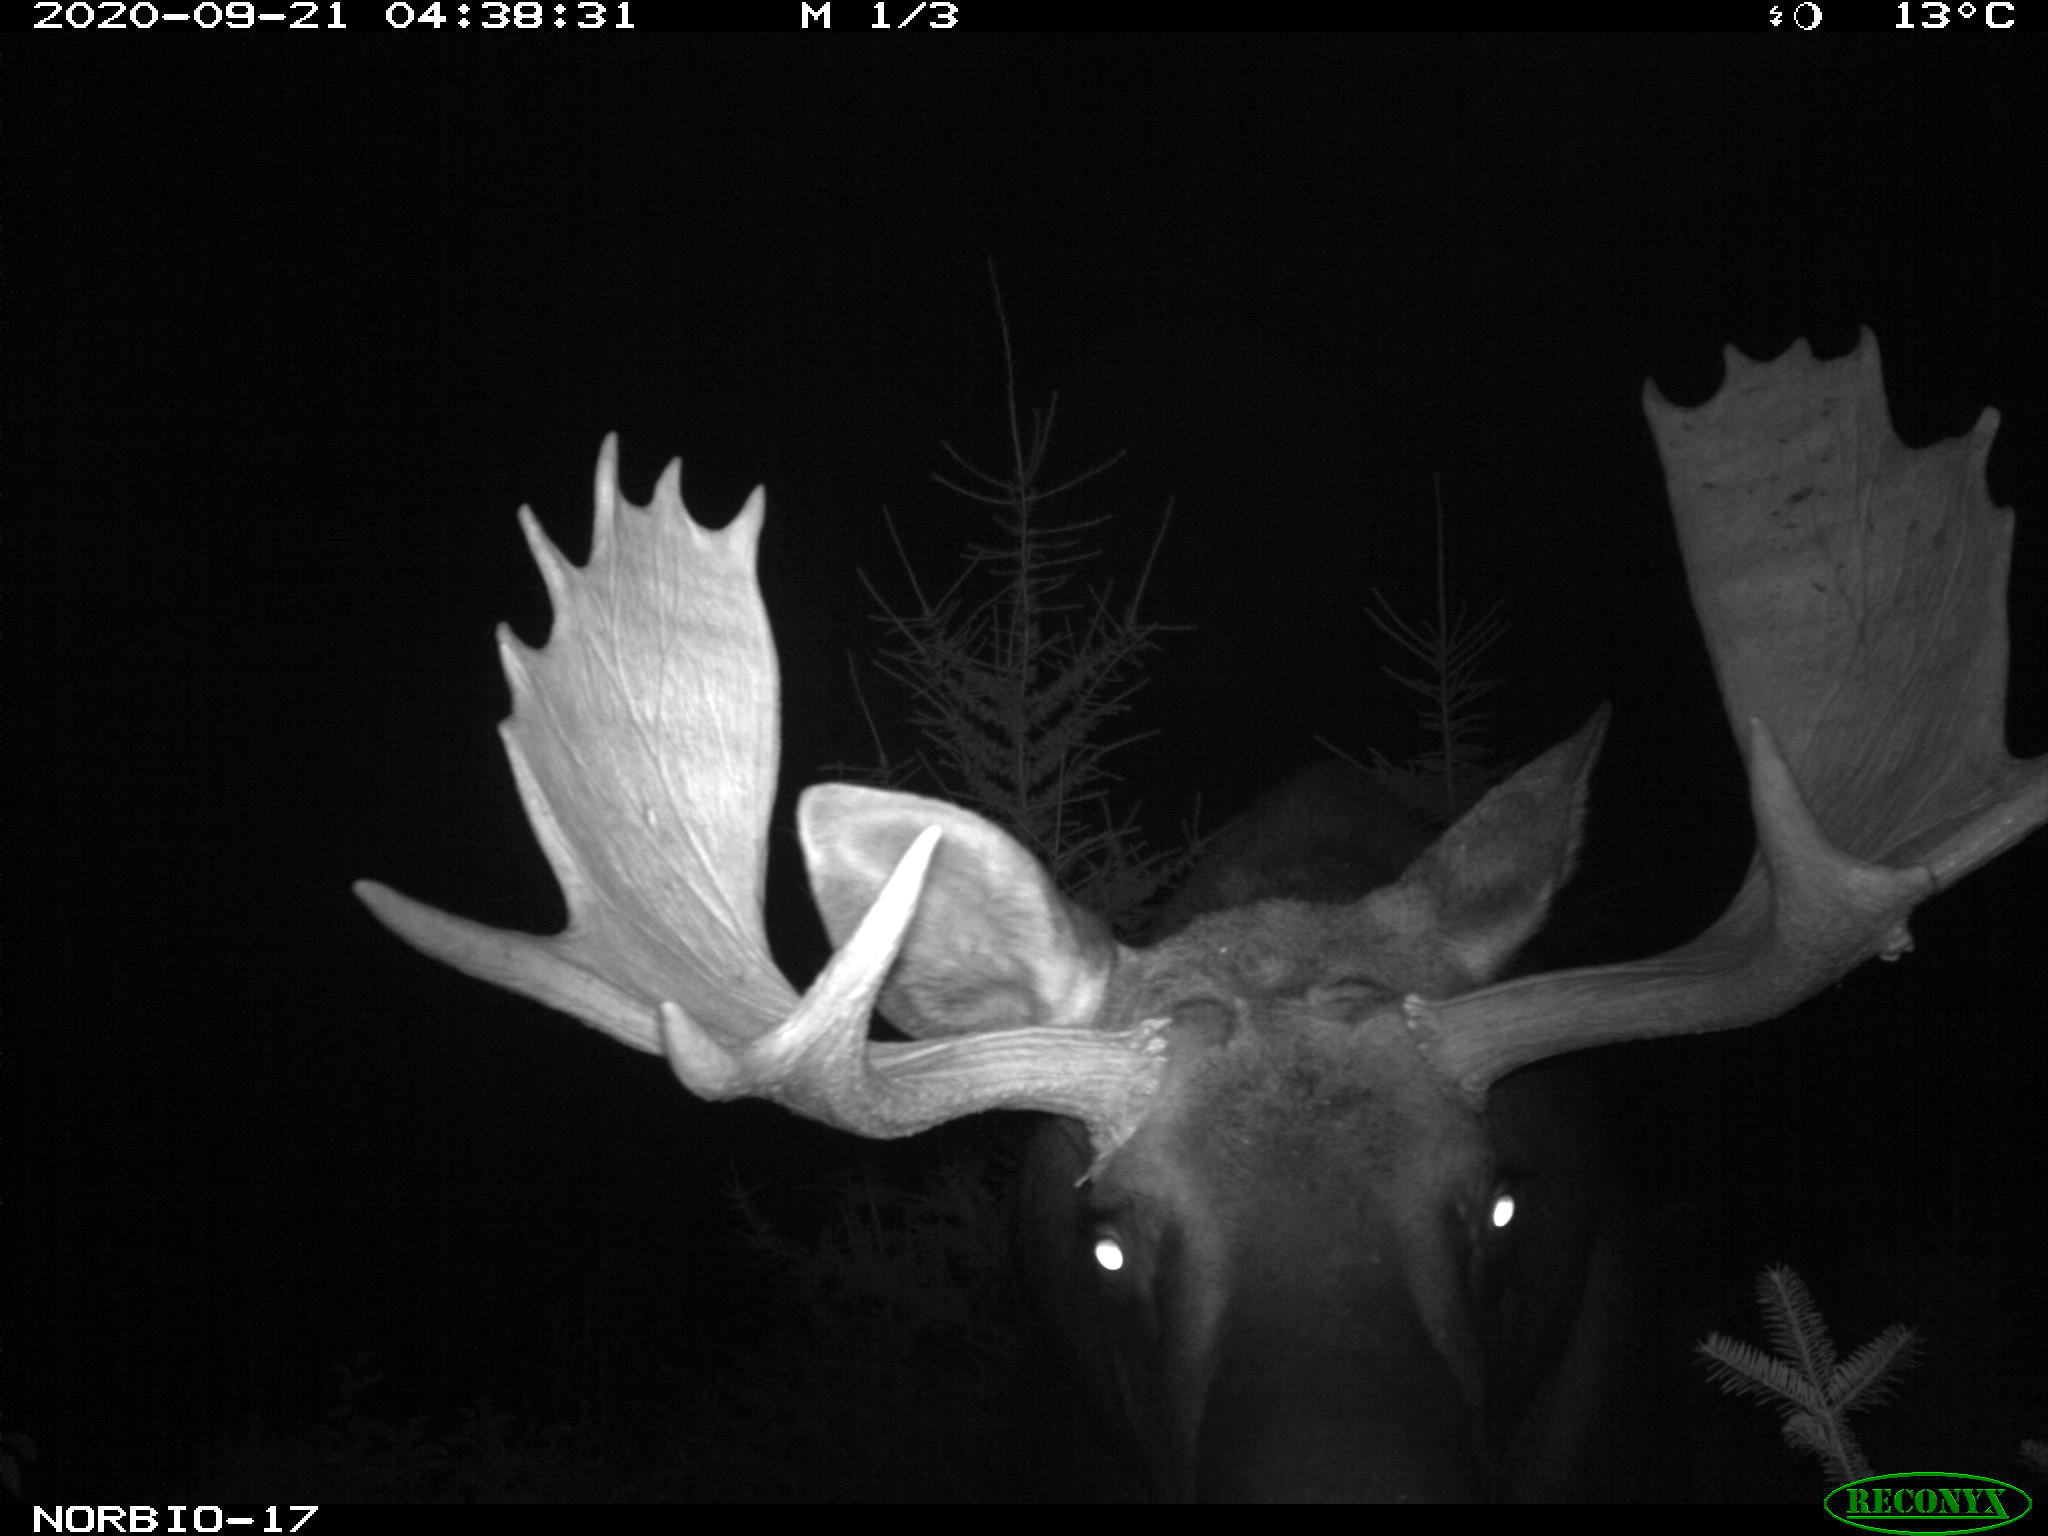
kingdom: Animalia
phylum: Chordata
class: Mammalia
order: Artiodactyla
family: Cervidae
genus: Alces
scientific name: Alces alces
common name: Moose
